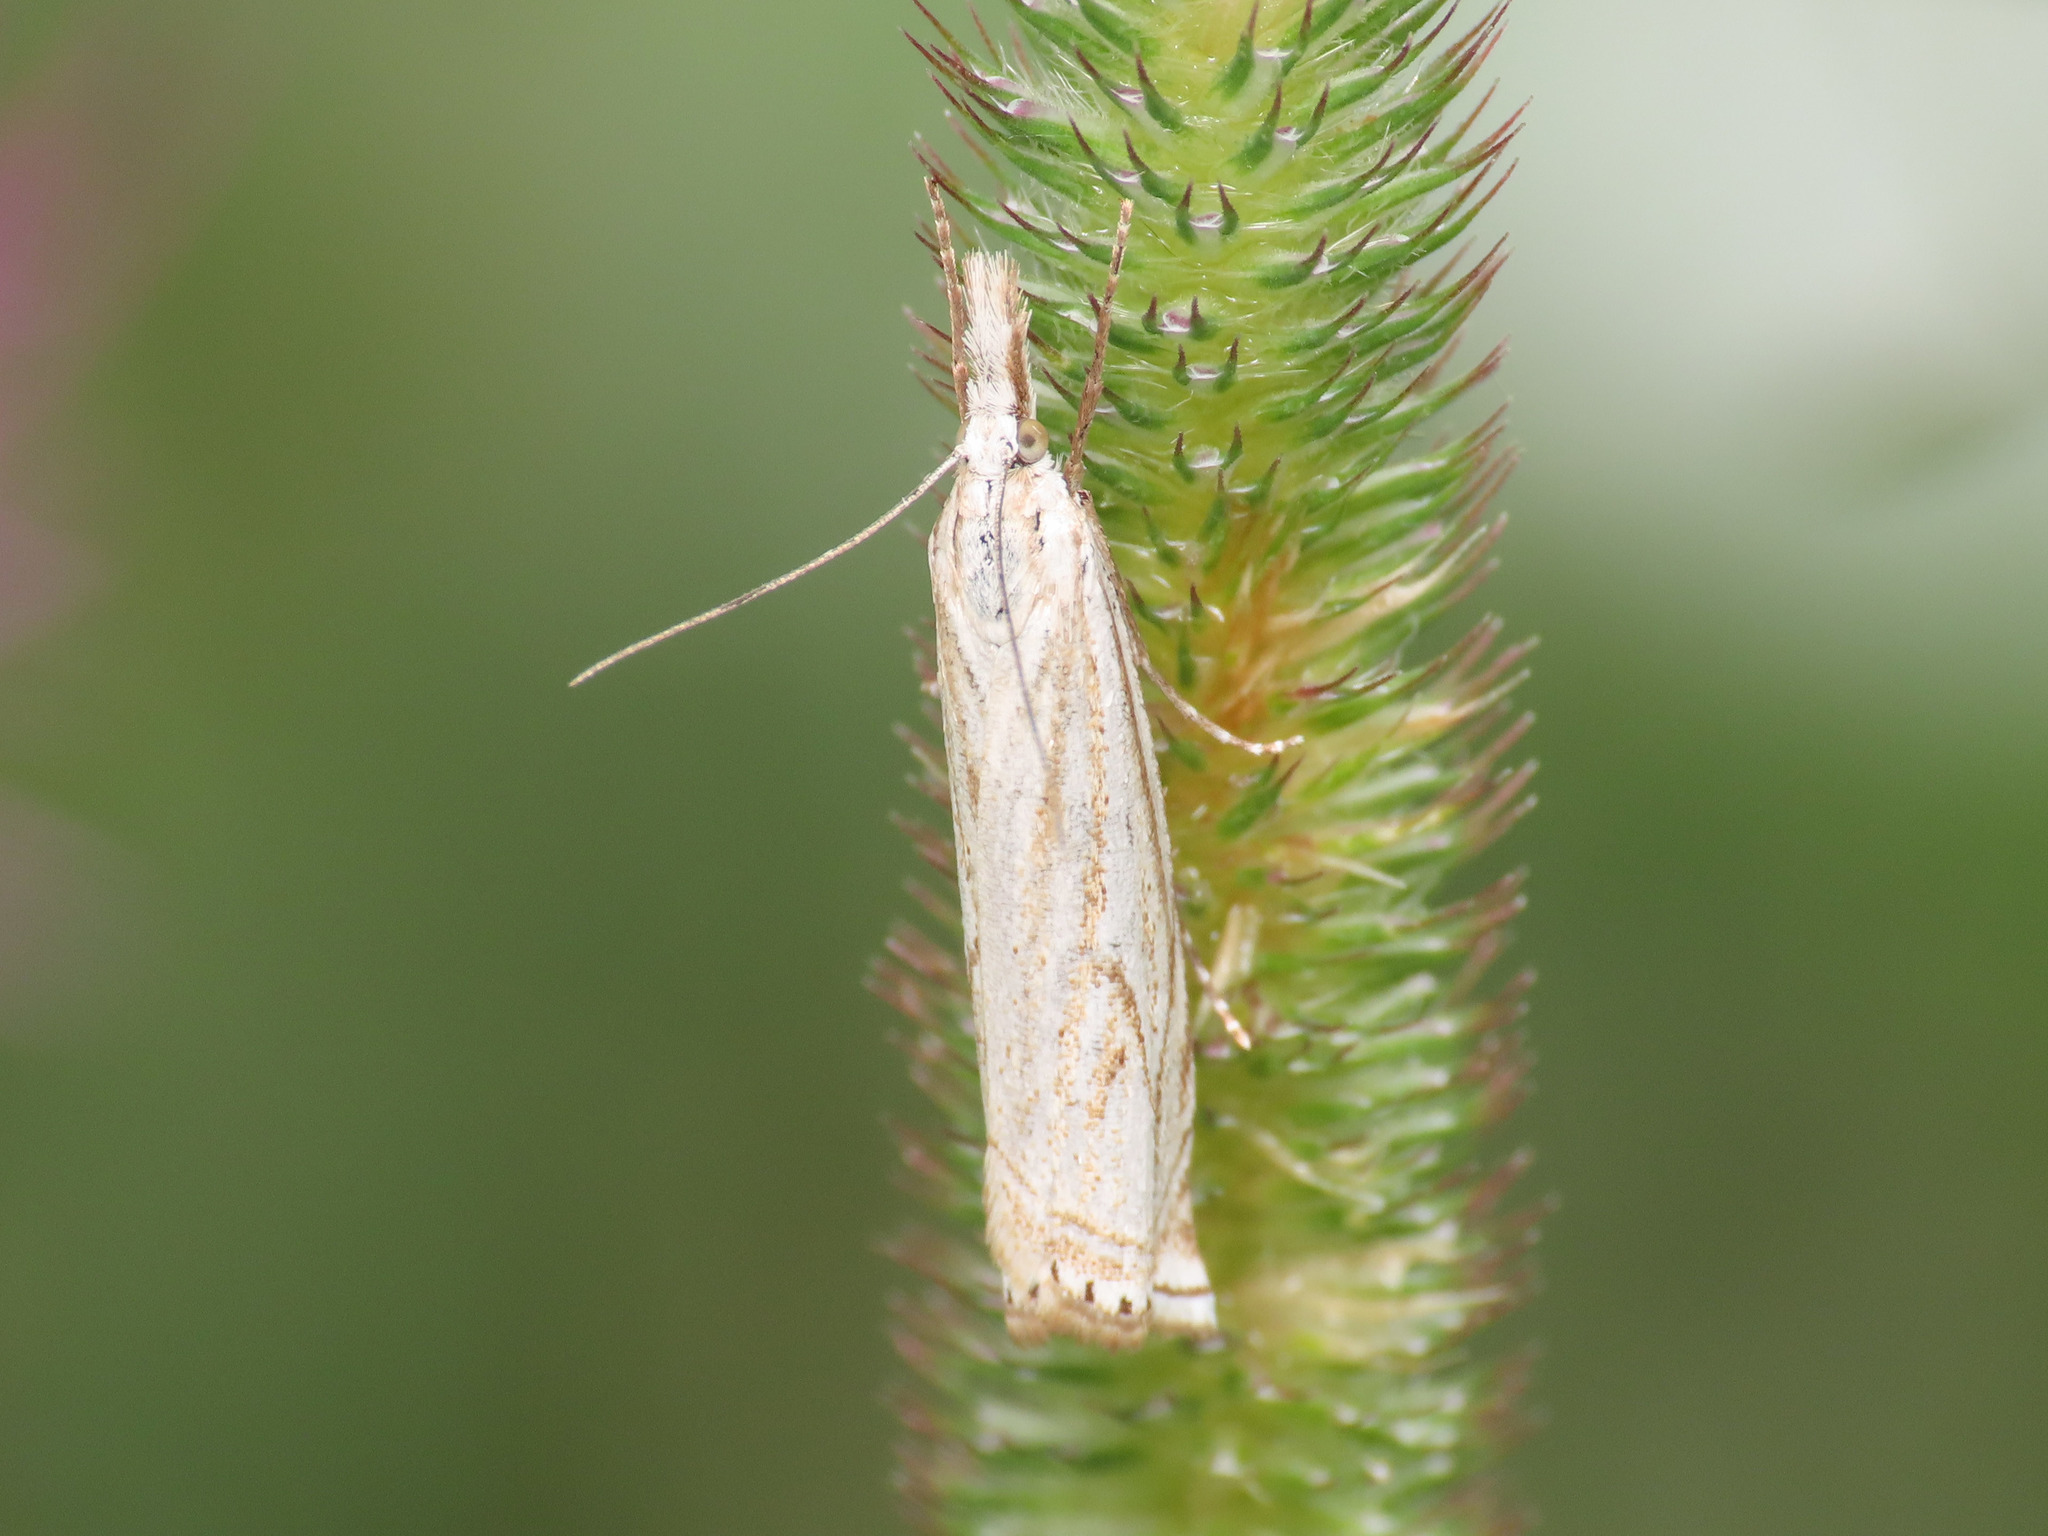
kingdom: Animalia
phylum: Arthropoda
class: Insecta
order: Lepidoptera
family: Crambidae
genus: Crambus
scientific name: Crambus nemorella
